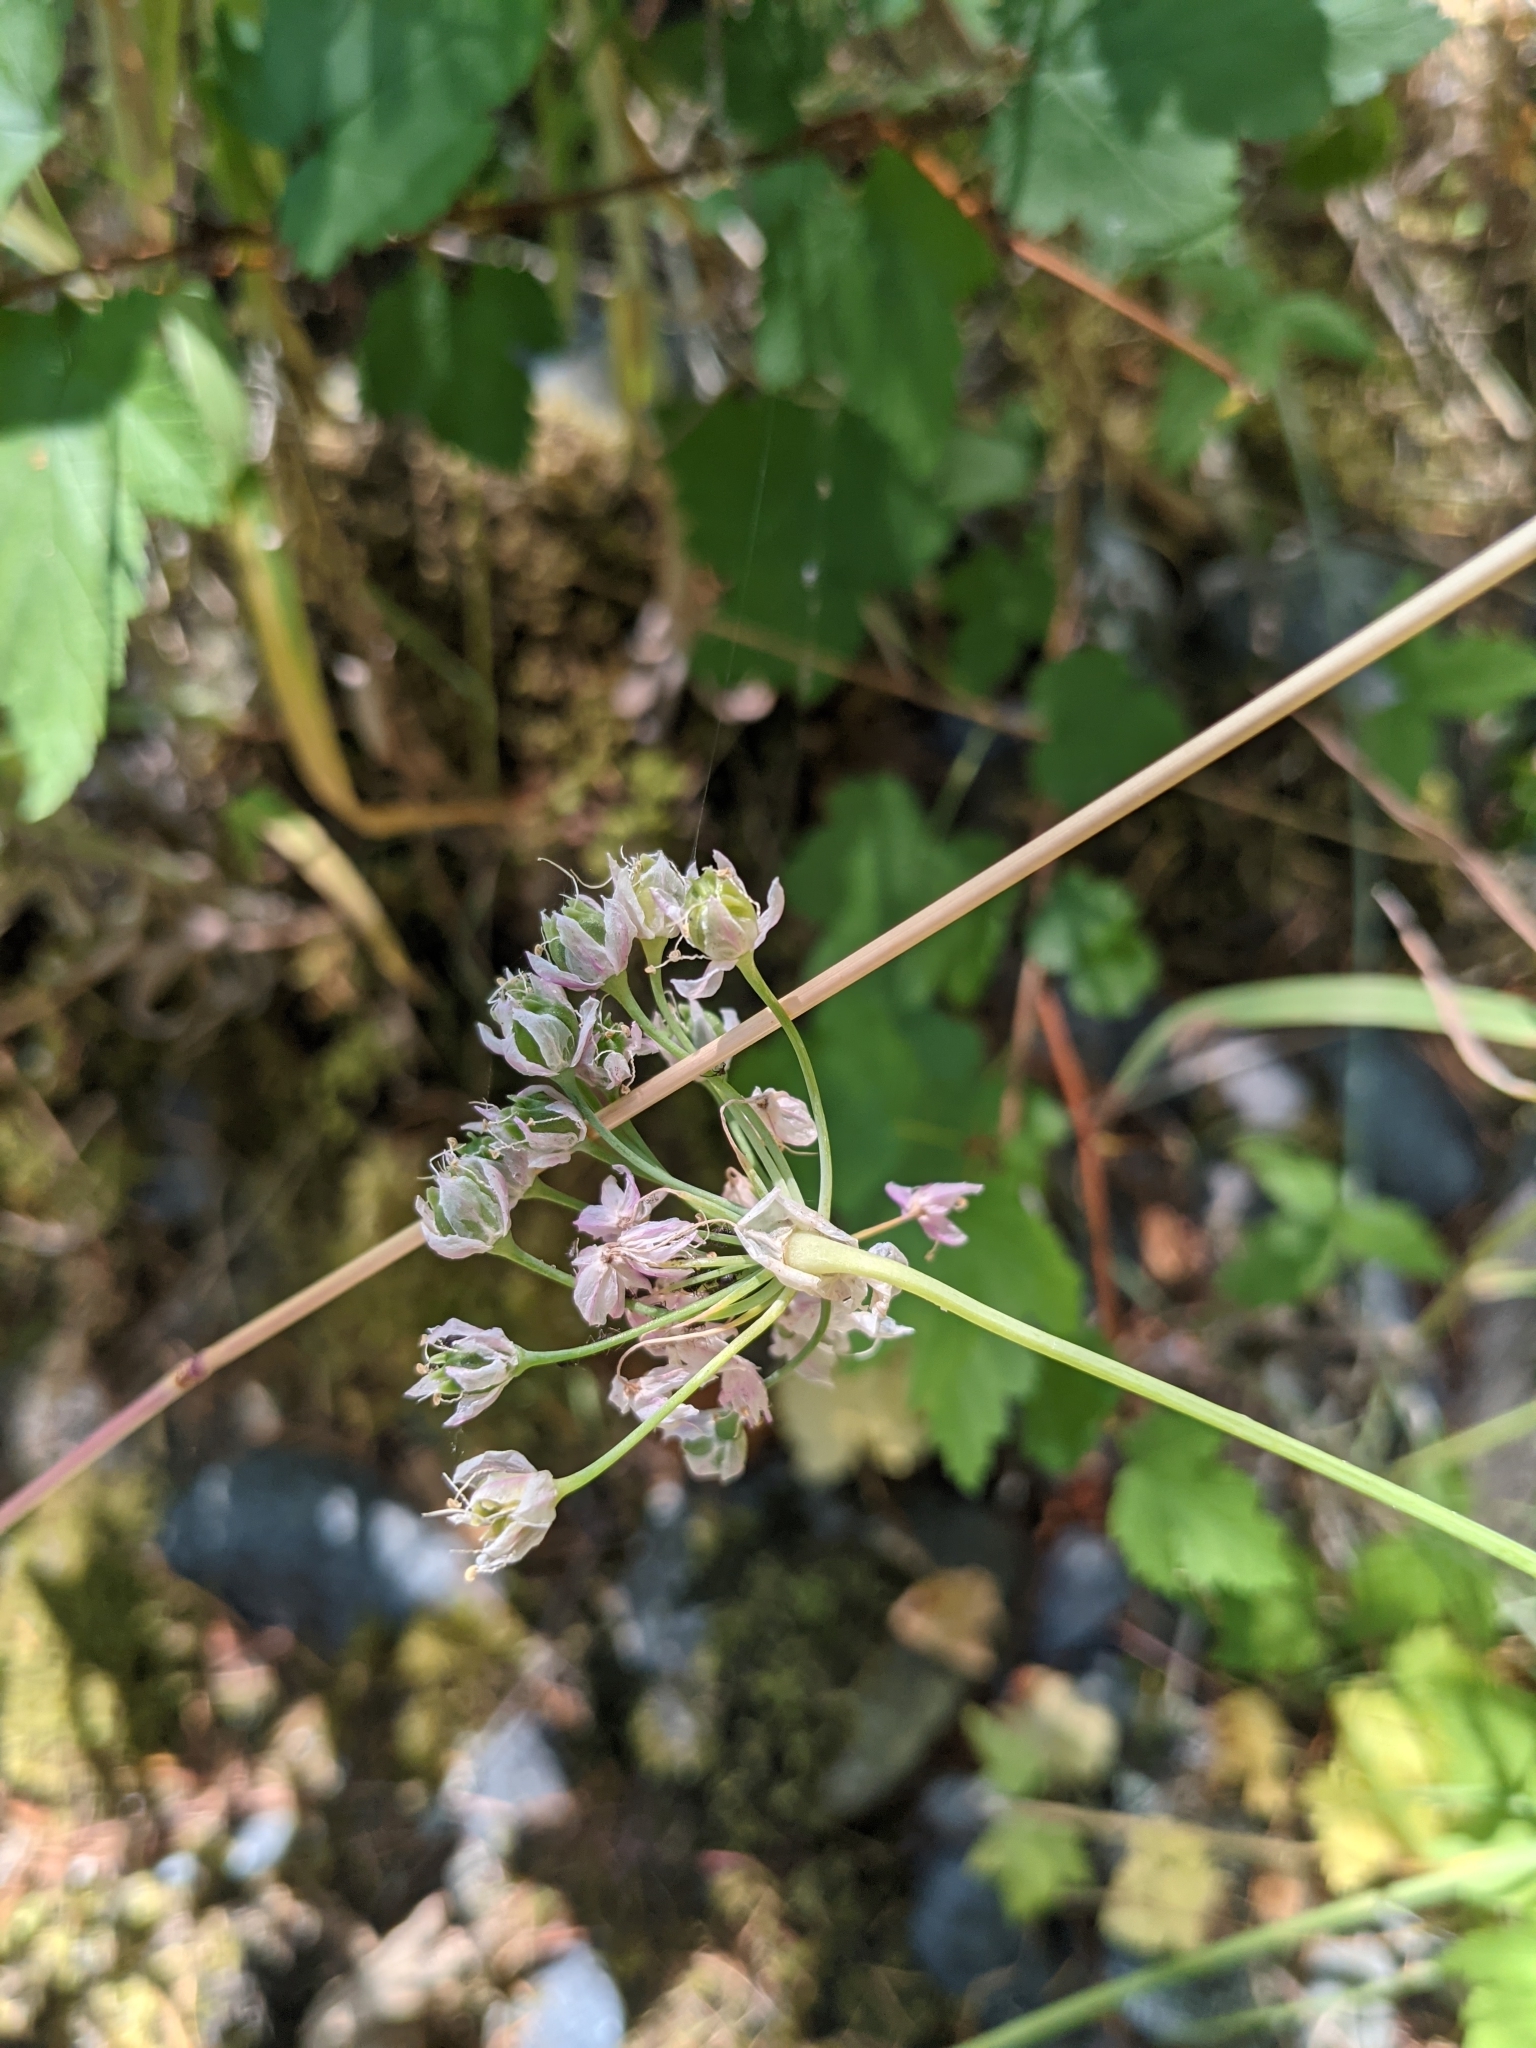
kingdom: Plantae
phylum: Tracheophyta
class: Liliopsida
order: Asparagales
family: Amaryllidaceae
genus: Allium
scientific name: Allium cernuum
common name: Nodding onion
